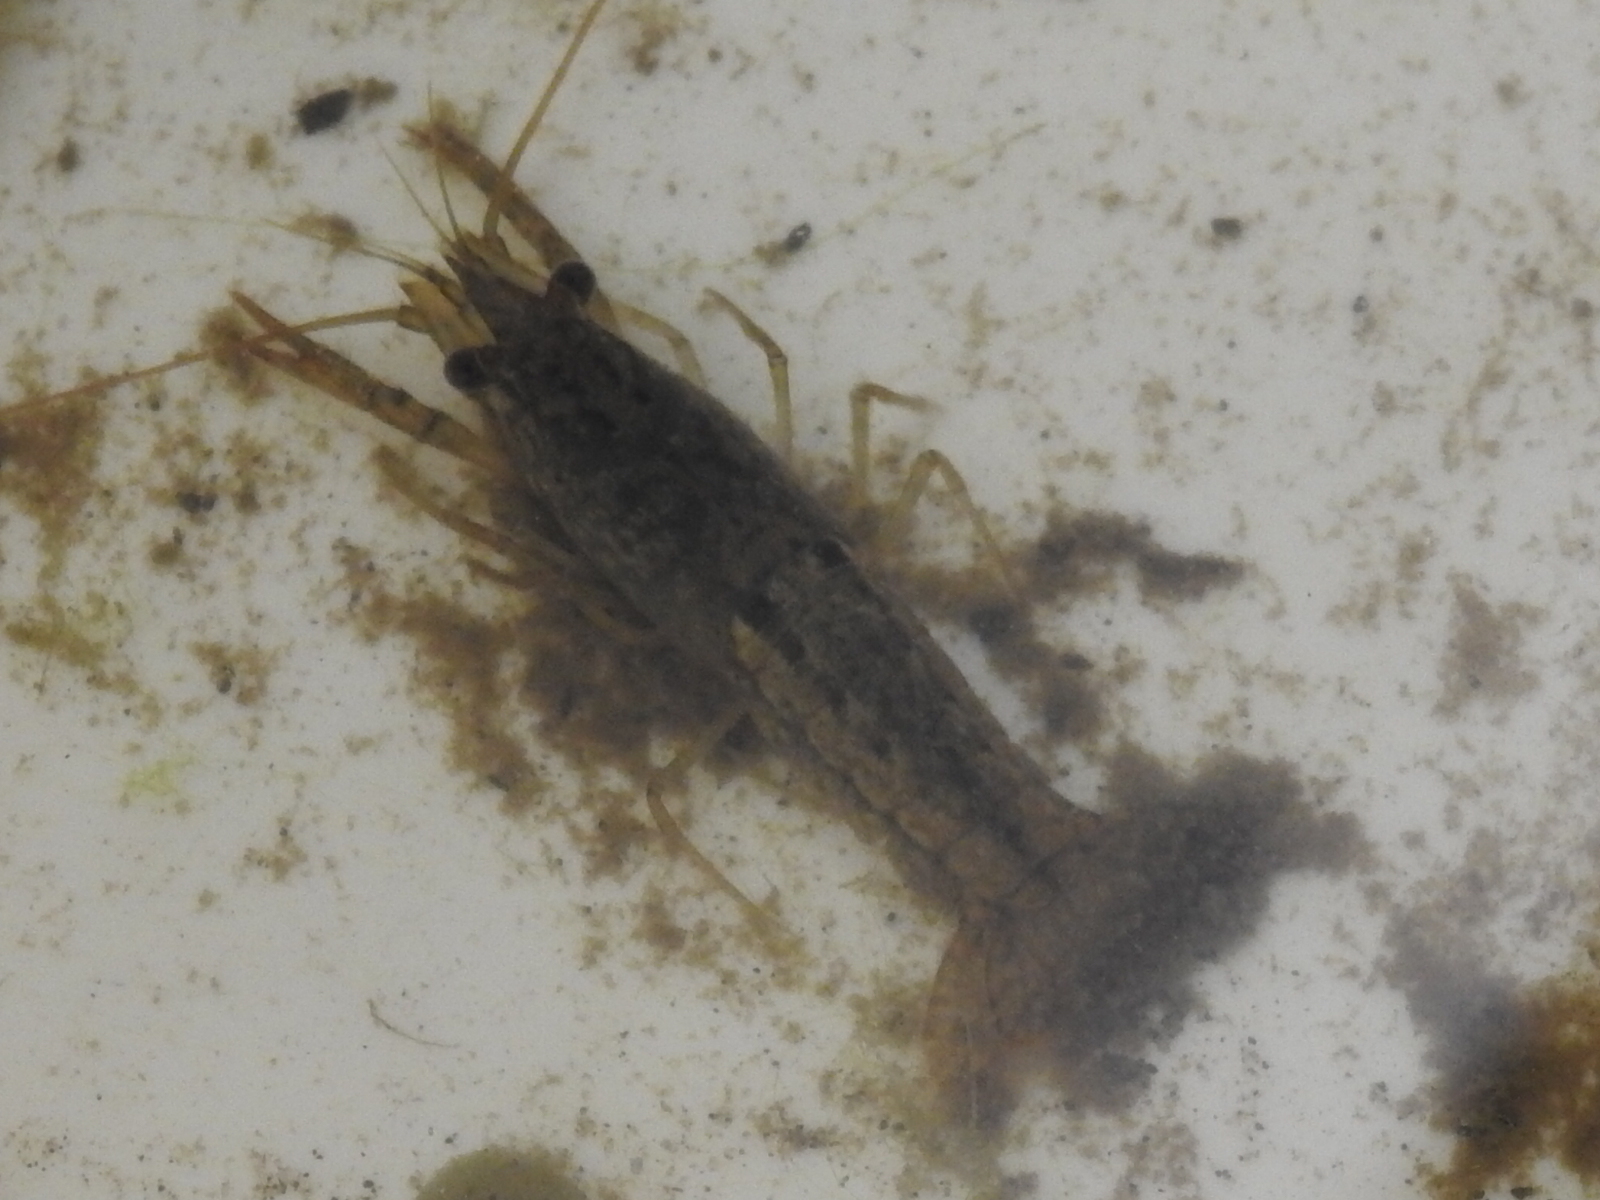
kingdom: Animalia
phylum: Arthropoda
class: Malacostraca
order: Decapoda
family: Cambaridae
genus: Procambarus
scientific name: Procambarus clarkii
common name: Red swamp crayfish
